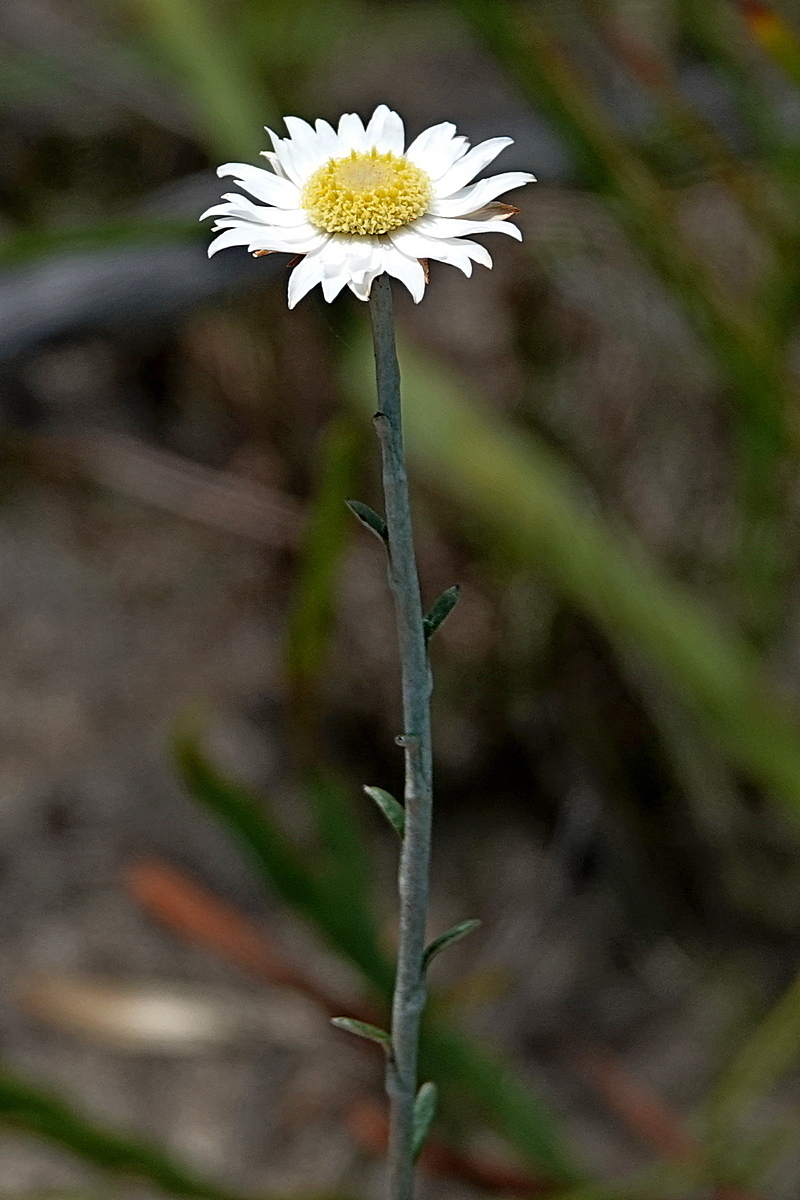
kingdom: Plantae
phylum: Tracheophyta
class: Magnoliopsida
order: Asterales
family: Asteraceae
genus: Argentipallium
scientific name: Argentipallium obtusifolium
